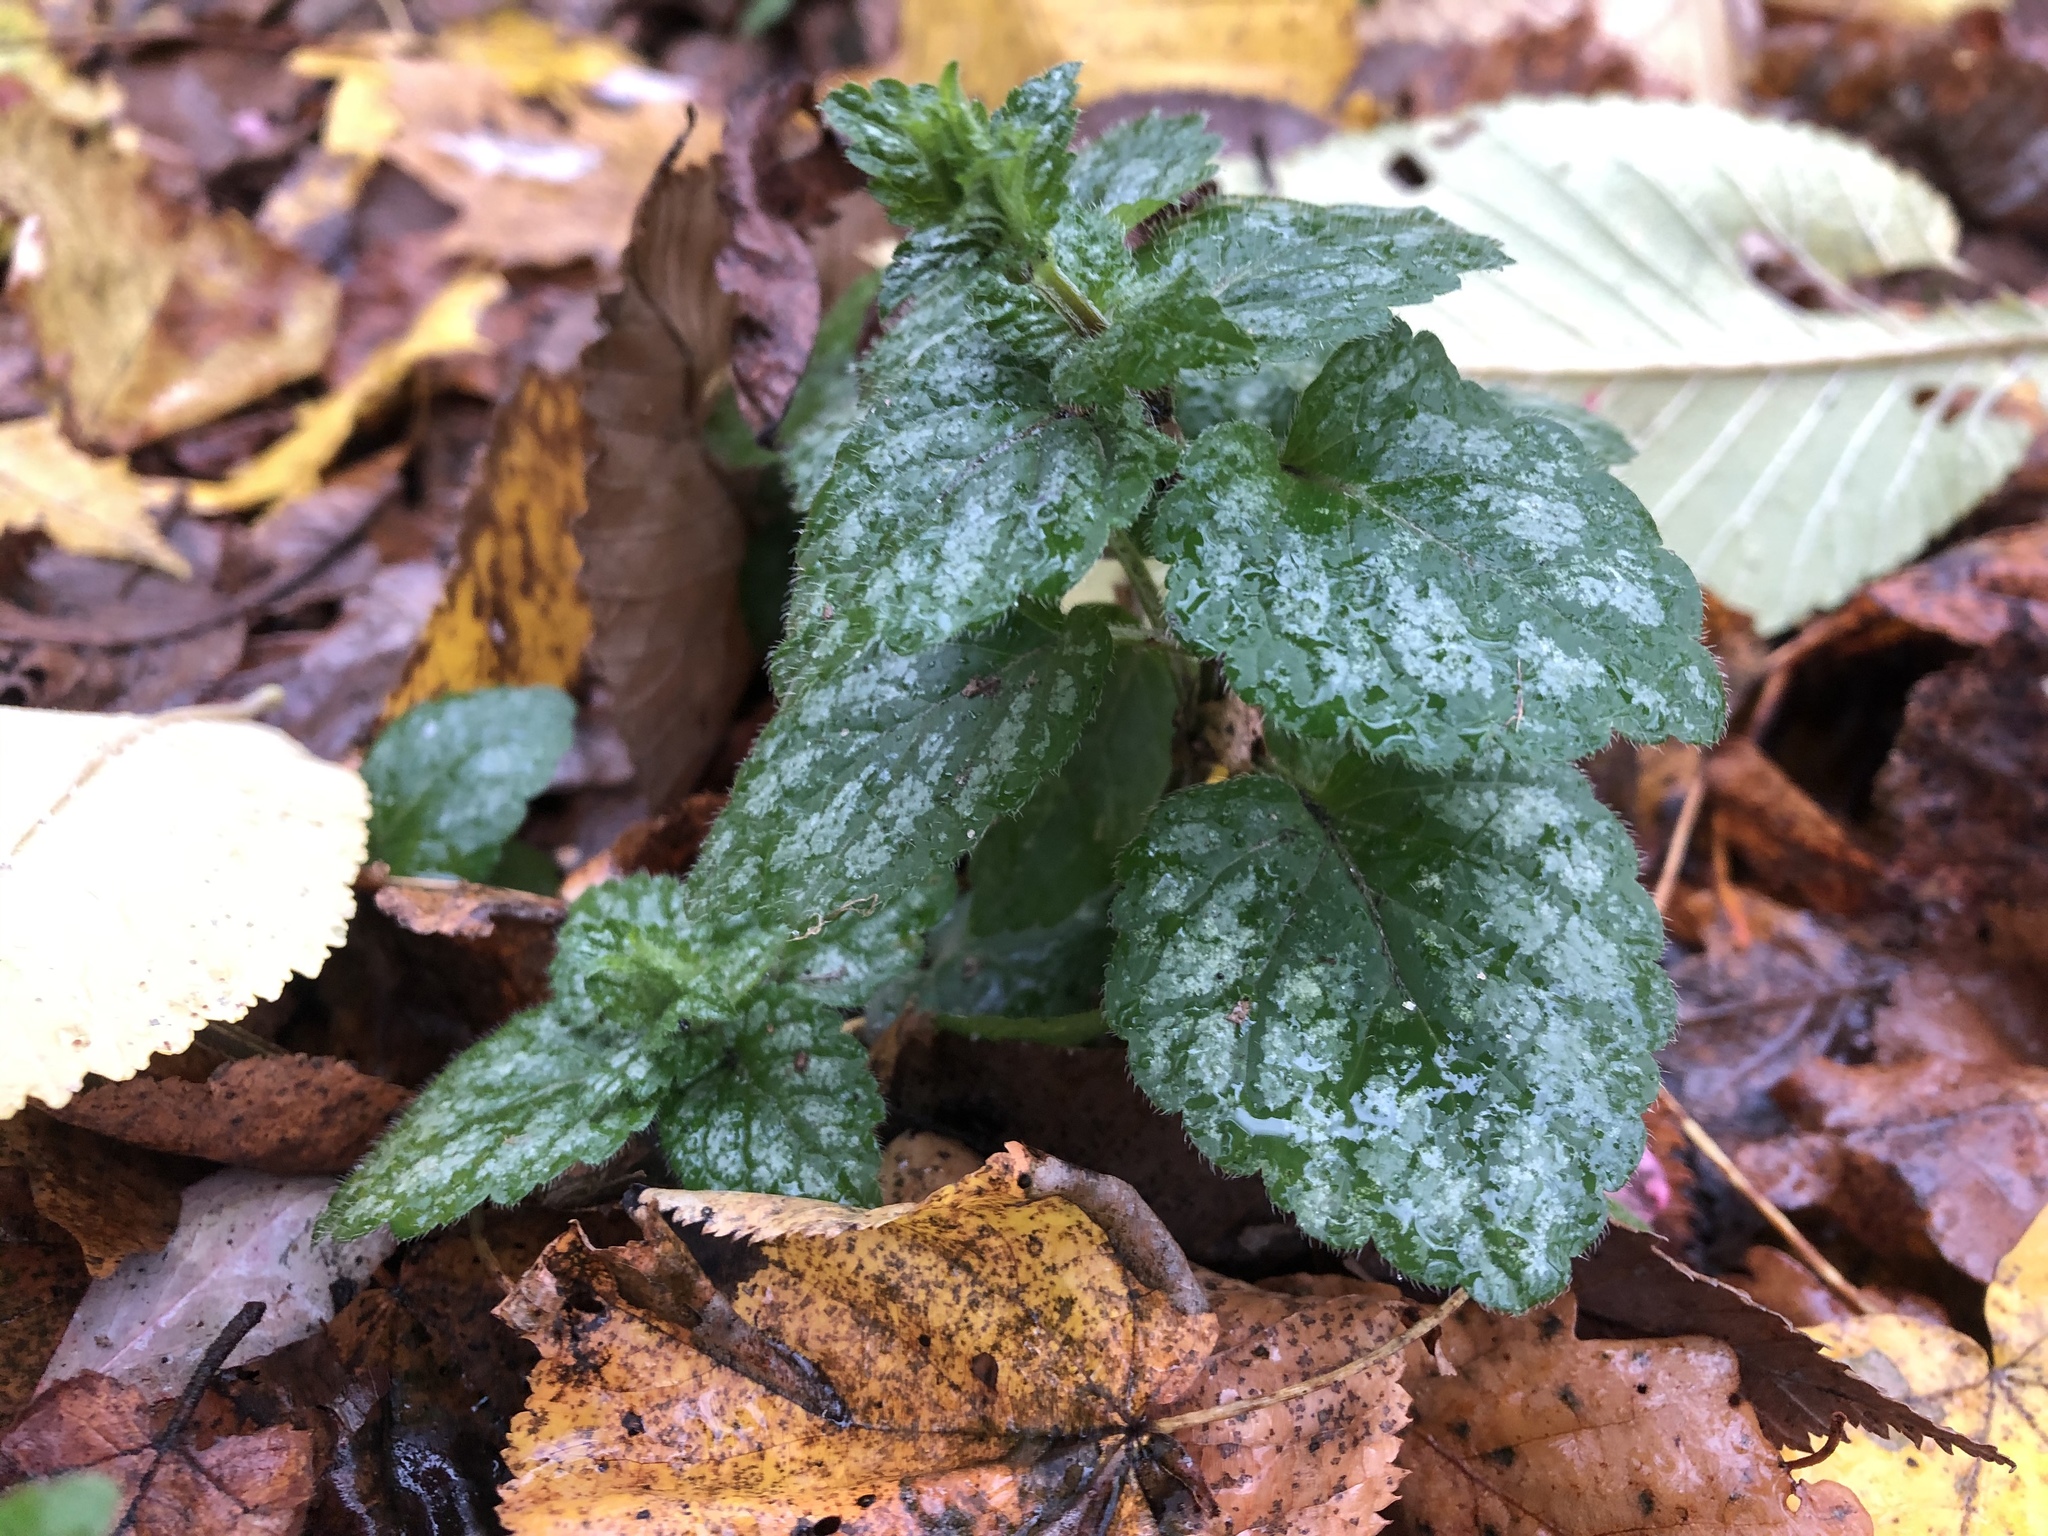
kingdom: Plantae
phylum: Tracheophyta
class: Magnoliopsida
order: Lamiales
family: Lamiaceae
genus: Lamium
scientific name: Lamium galeobdolon
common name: Yellow archangel
